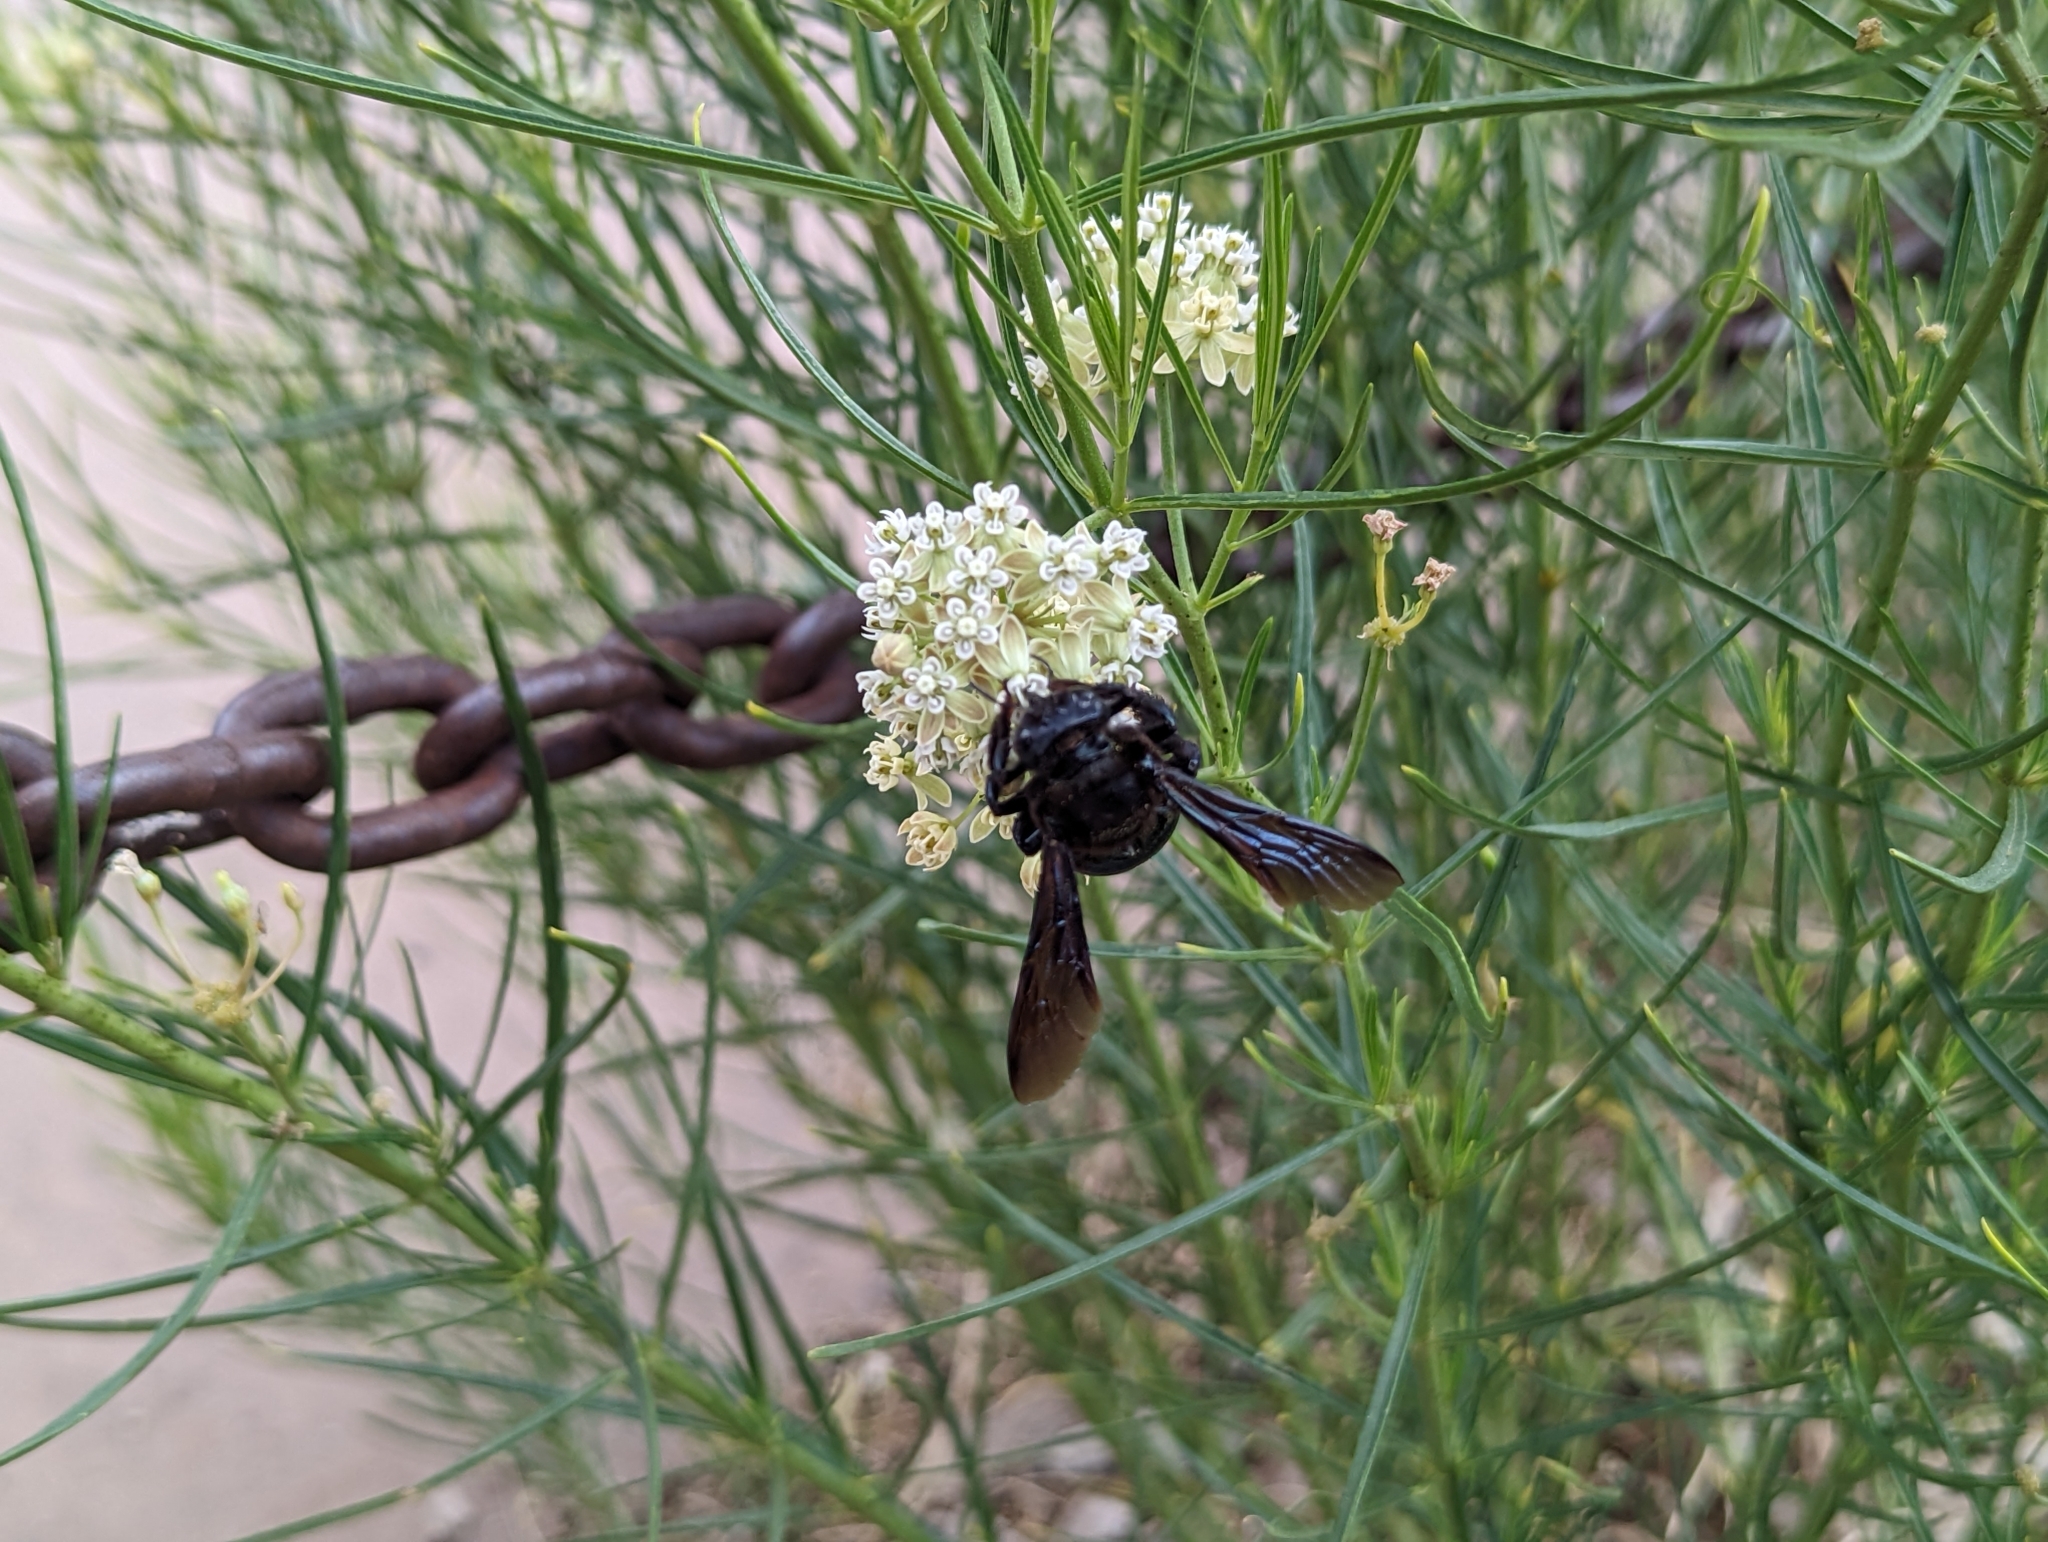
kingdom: Animalia
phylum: Arthropoda
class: Insecta
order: Hymenoptera
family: Apidae
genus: Xylocopa
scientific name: Xylocopa californica
